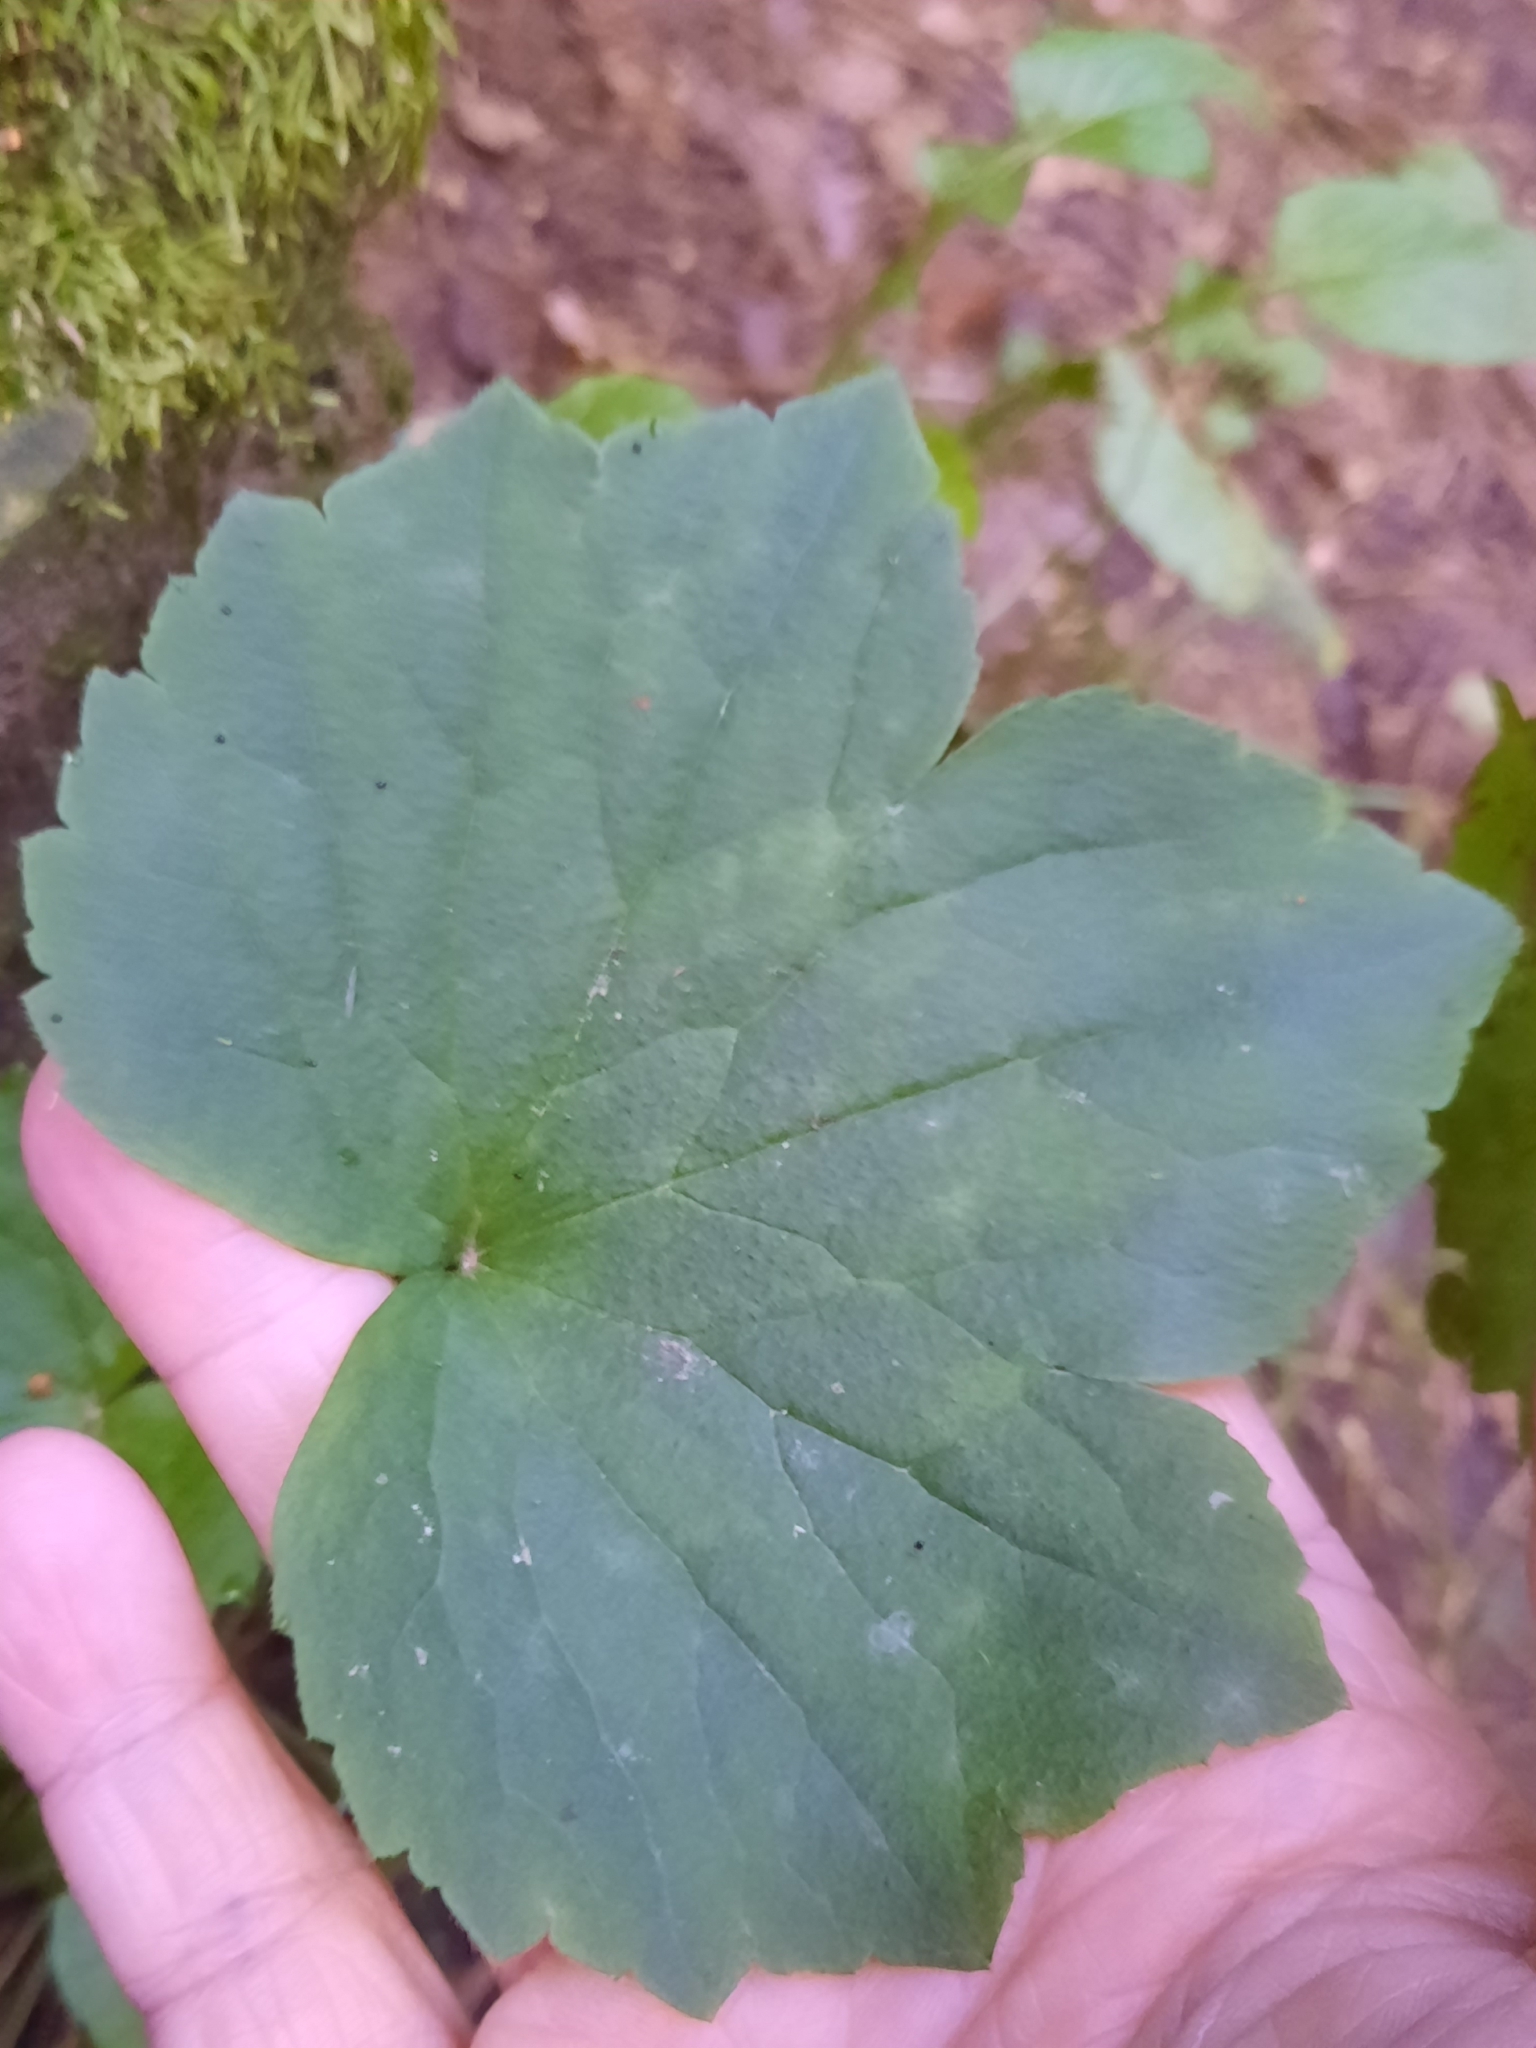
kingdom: Plantae
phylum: Tracheophyta
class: Magnoliopsida
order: Ranunculales
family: Ranunculaceae
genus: Ranunculus
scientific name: Ranunculus recurvatus
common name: Blisterwort
